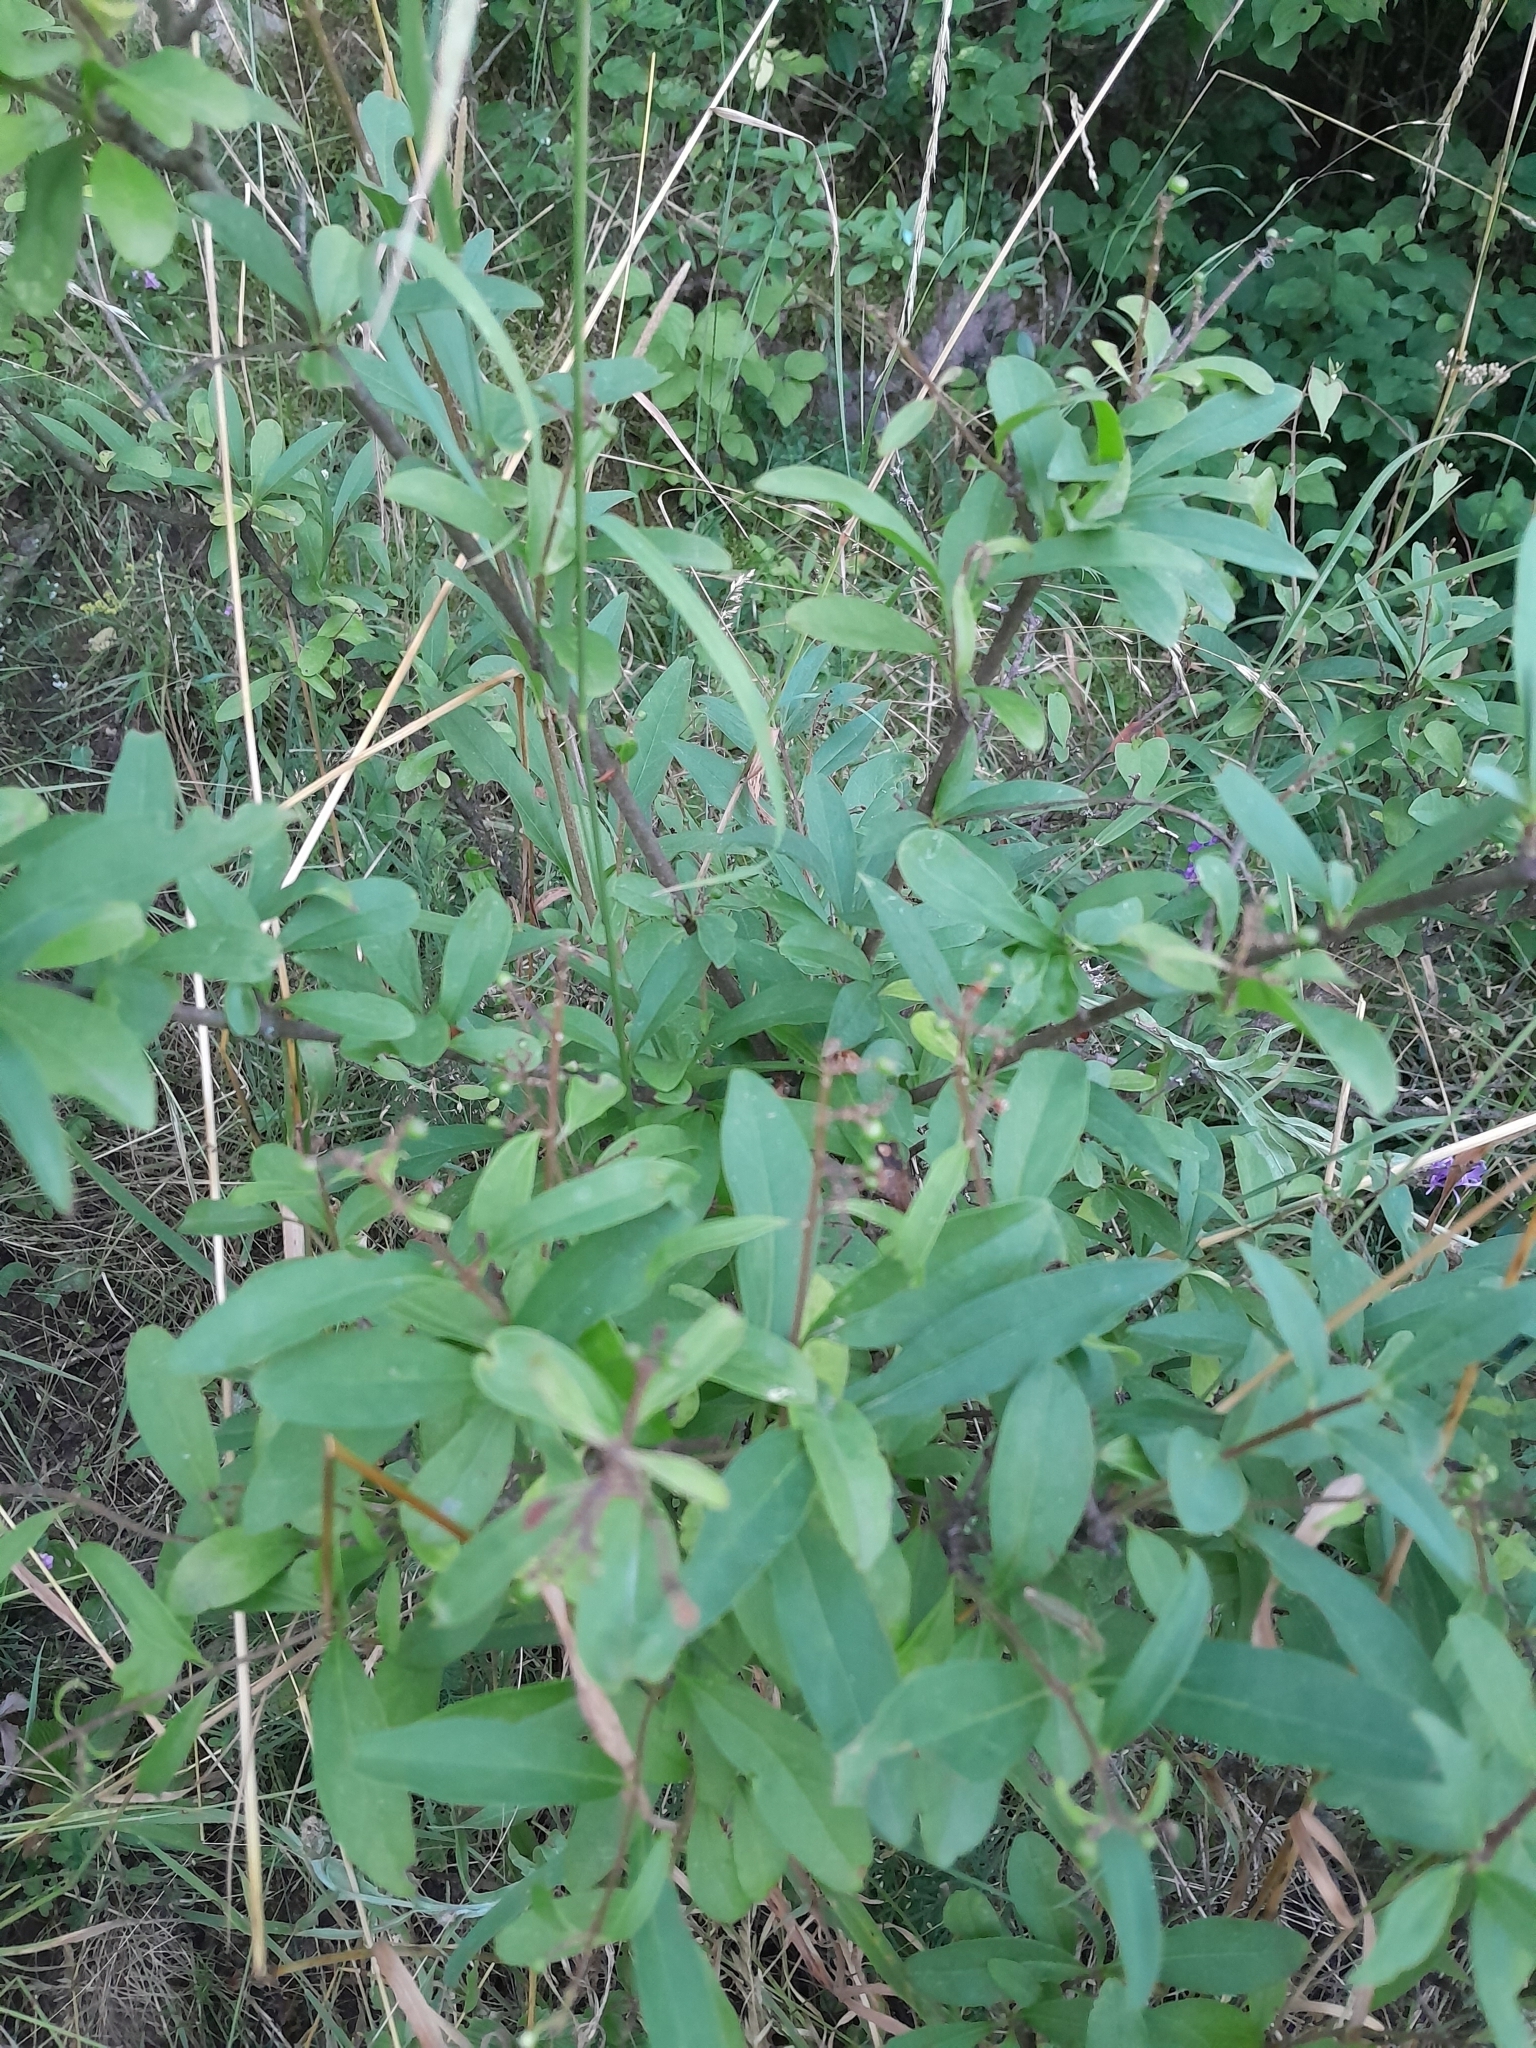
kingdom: Plantae
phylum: Tracheophyta
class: Magnoliopsida
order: Lamiales
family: Oleaceae
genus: Ligustrum
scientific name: Ligustrum vulgare
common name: Wild privet
